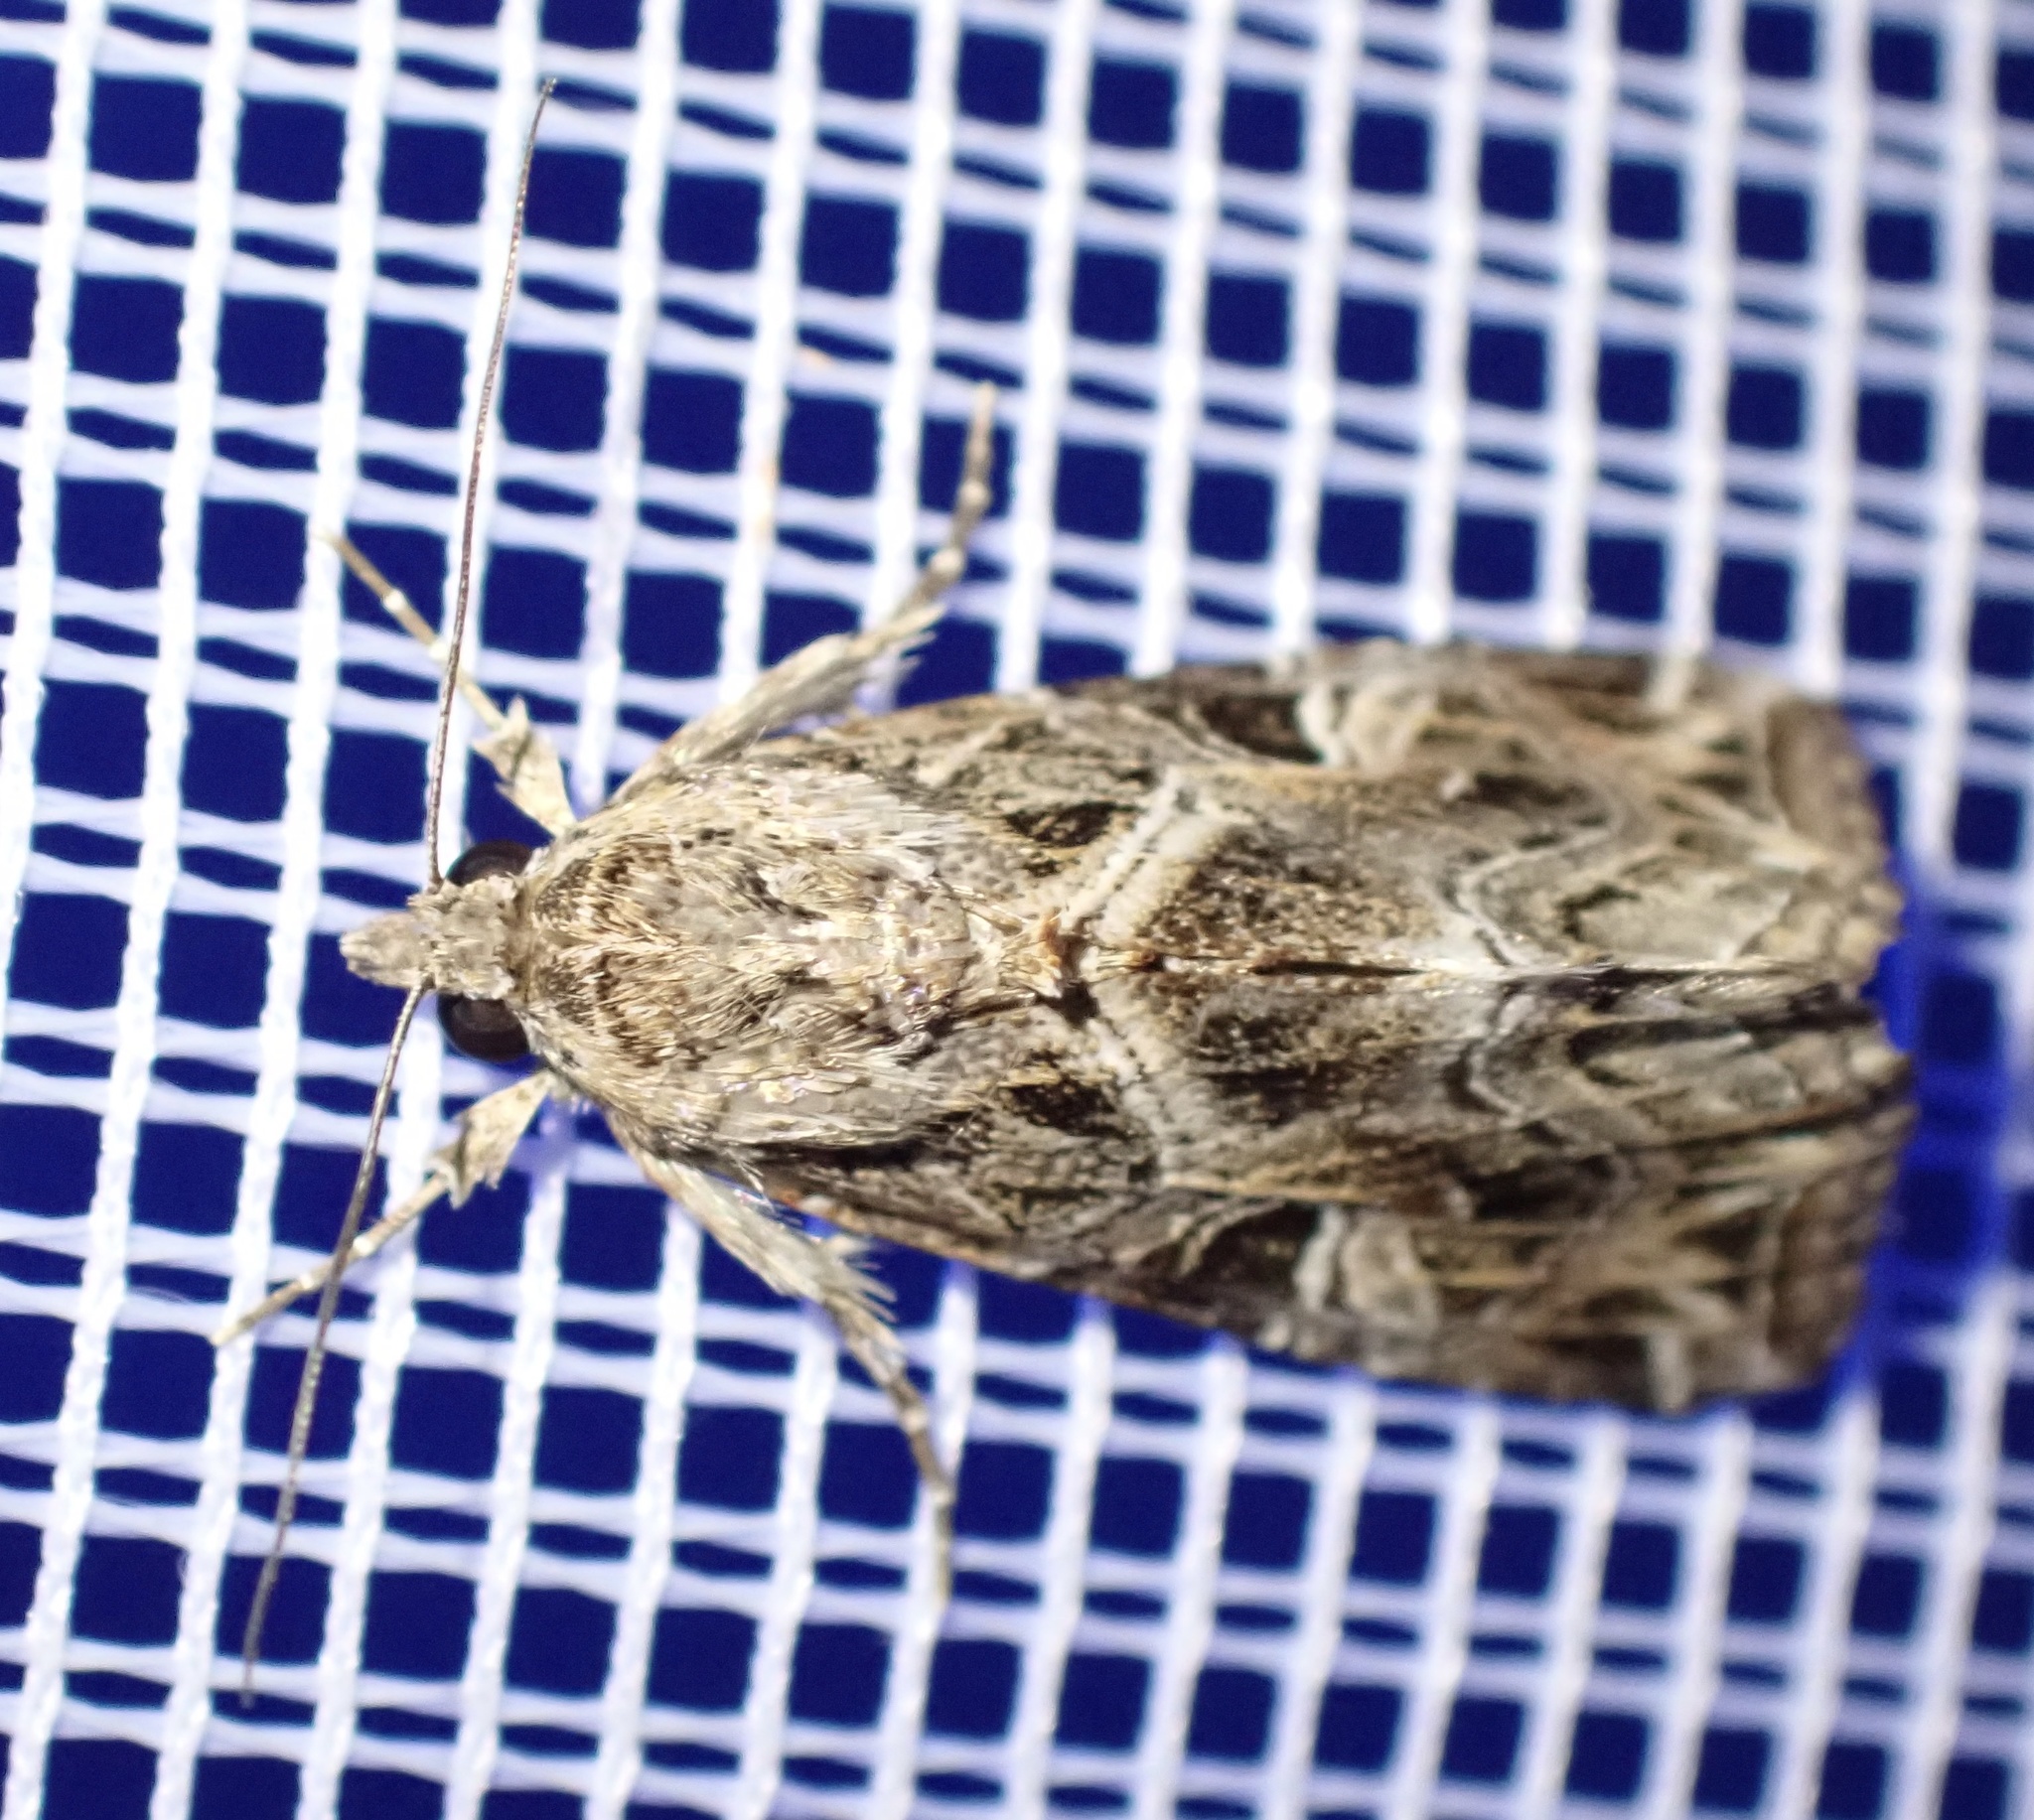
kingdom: Animalia
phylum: Arthropoda
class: Insecta
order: Lepidoptera
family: Noctuidae
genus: Callopistria
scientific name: Callopistria yerburii
